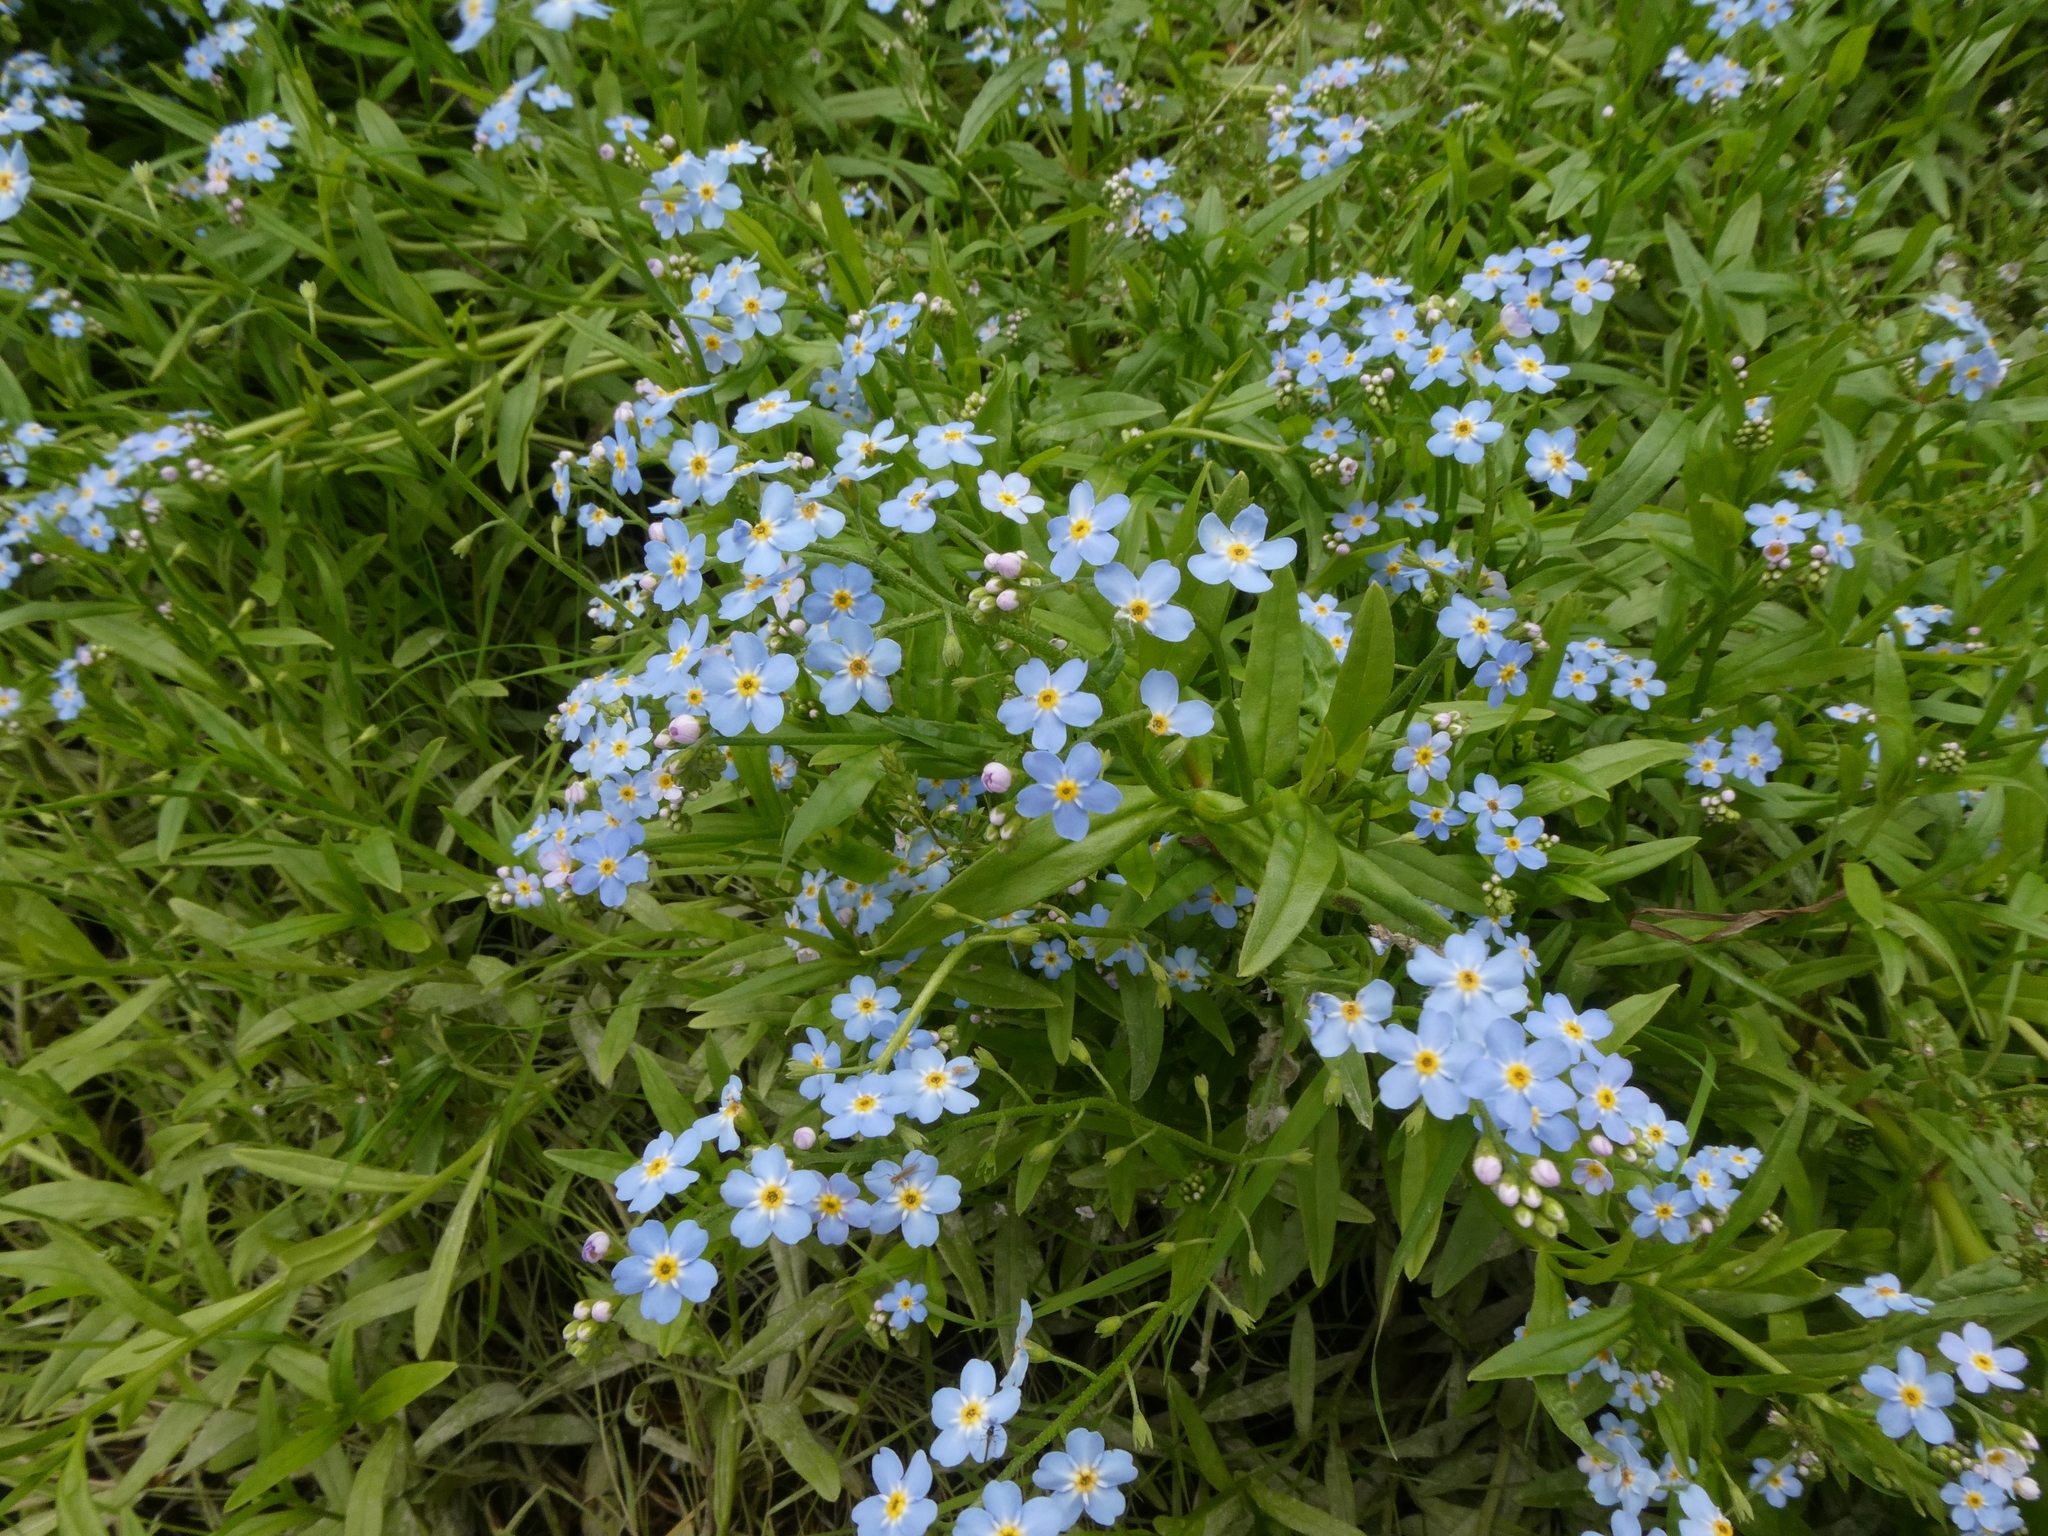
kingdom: Plantae
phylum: Tracheophyta
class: Magnoliopsida
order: Boraginales
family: Boraginaceae
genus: Myosotis
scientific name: Myosotis scorpioides
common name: Water forget-me-not
